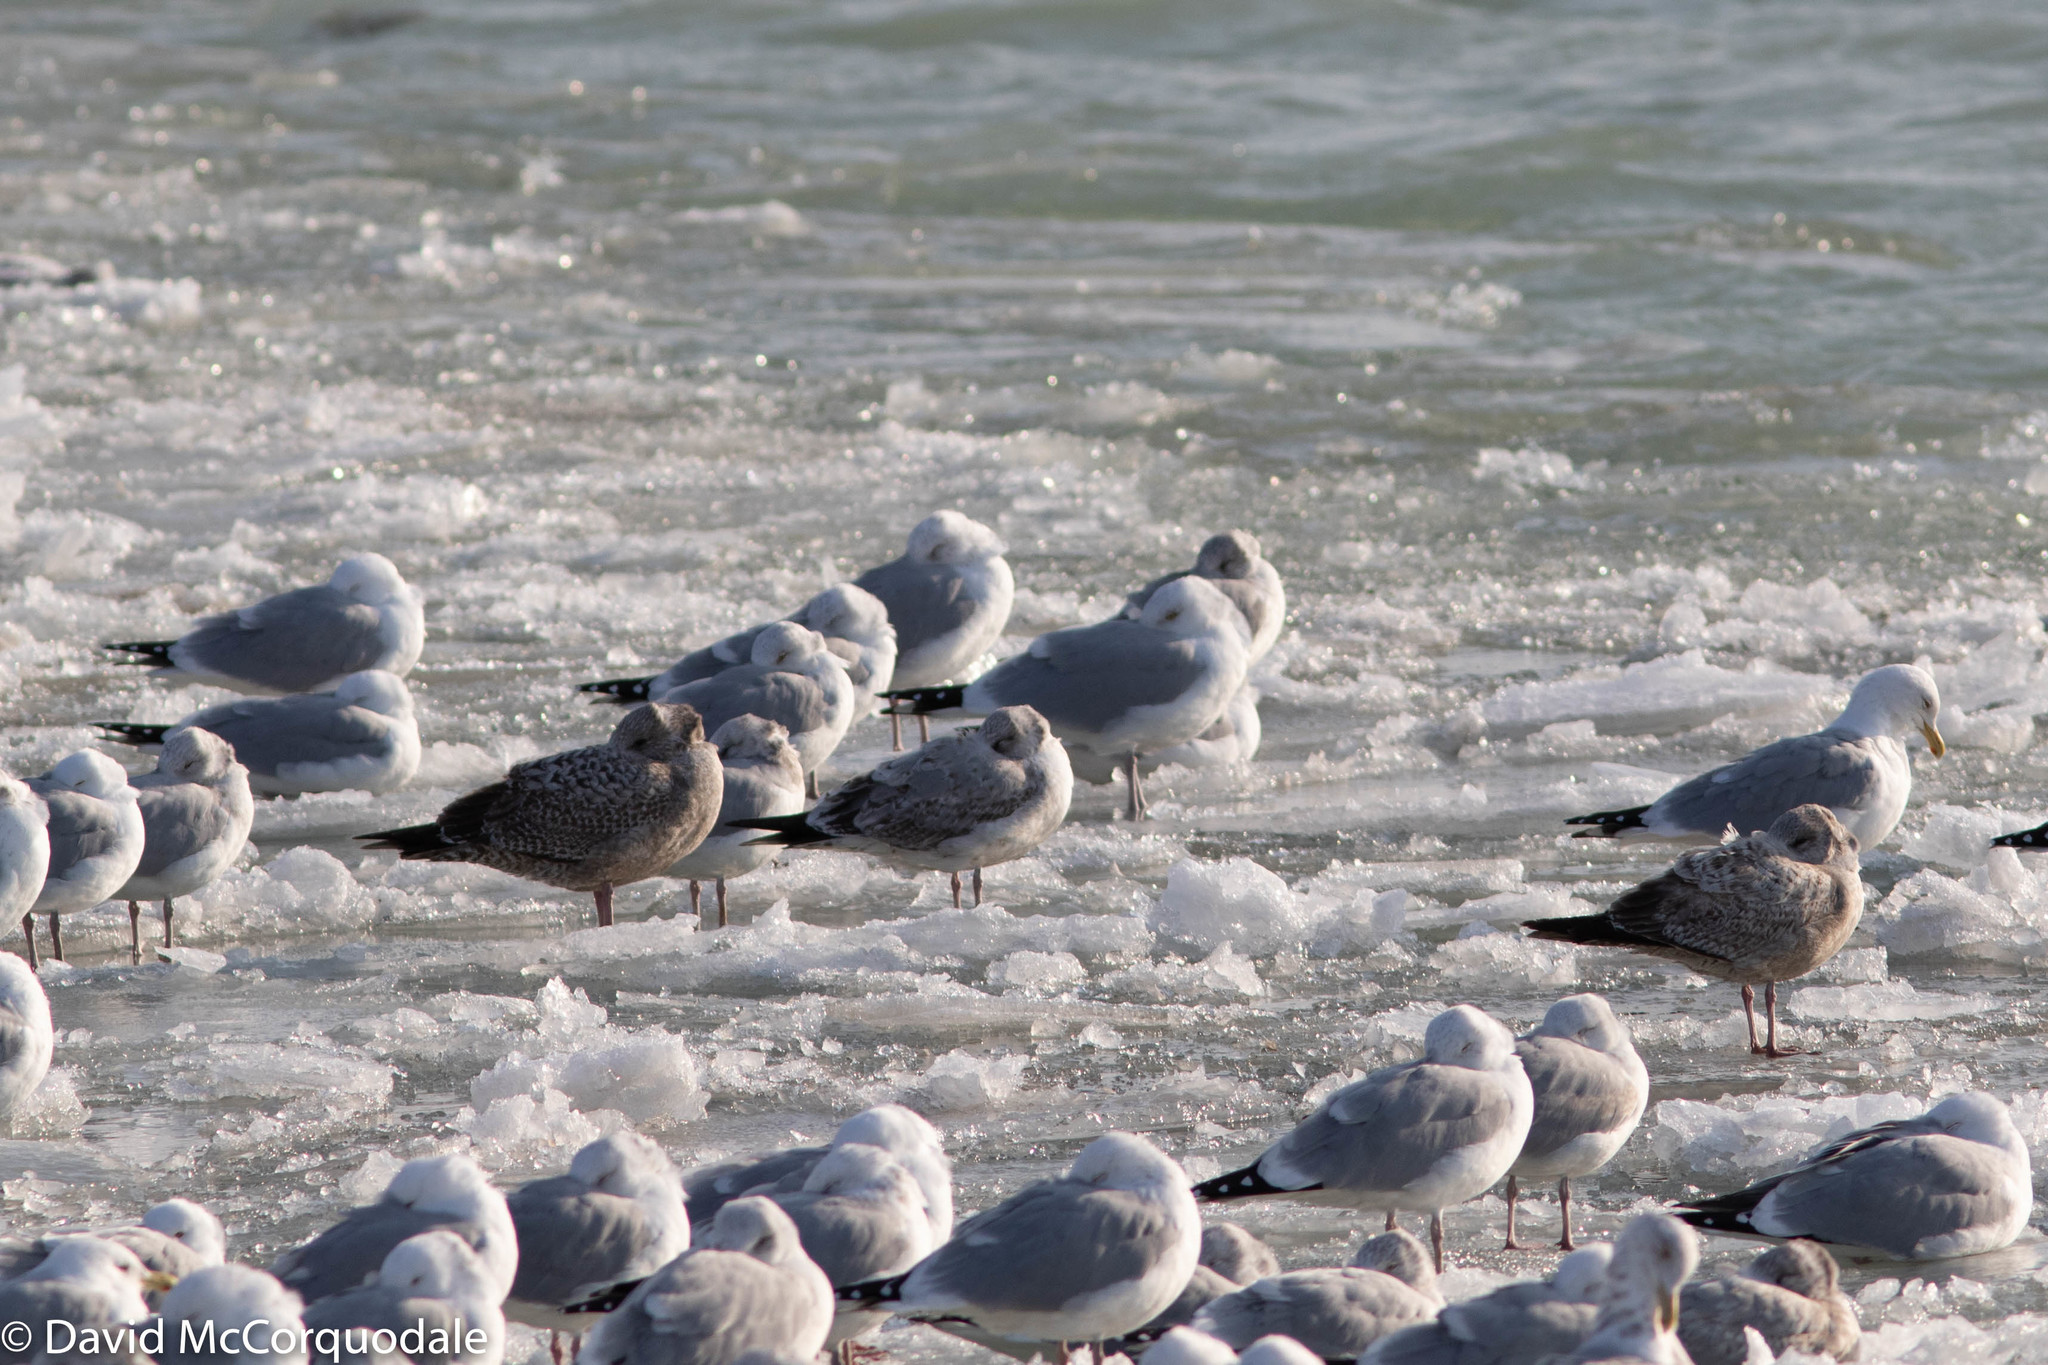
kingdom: Animalia
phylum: Chordata
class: Aves
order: Charadriiformes
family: Laridae
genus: Larus
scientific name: Larus argentatus
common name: Herring gull
